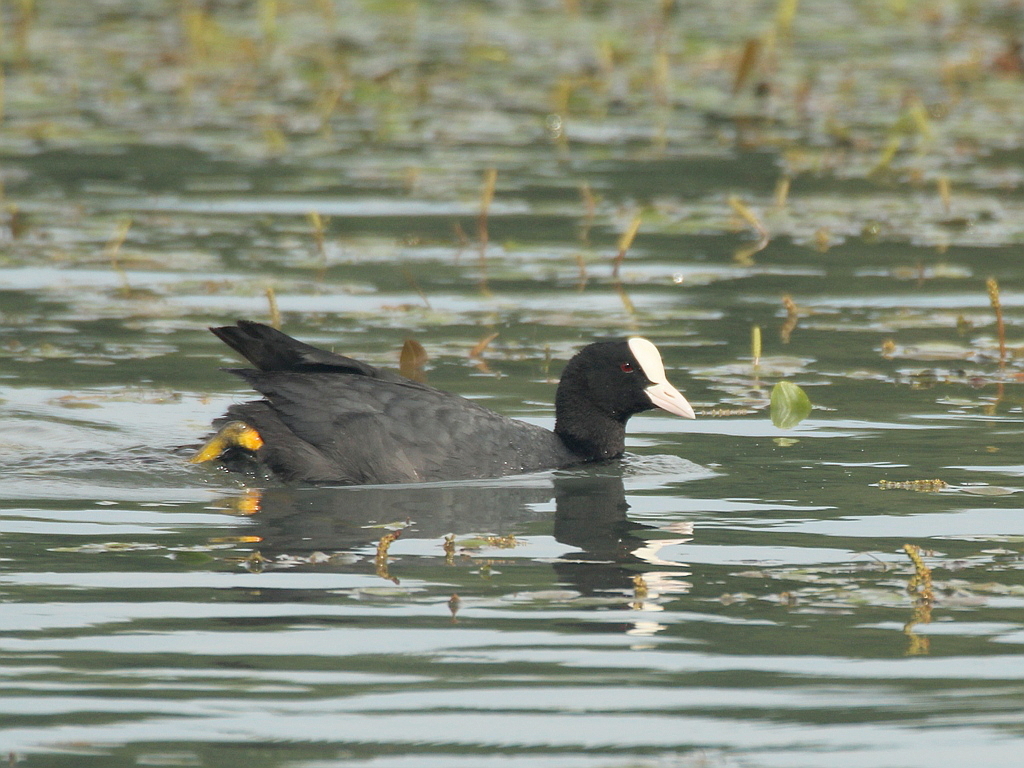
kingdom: Animalia
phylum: Chordata
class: Aves
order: Gruiformes
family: Rallidae
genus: Fulica
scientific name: Fulica atra
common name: Eurasian coot
